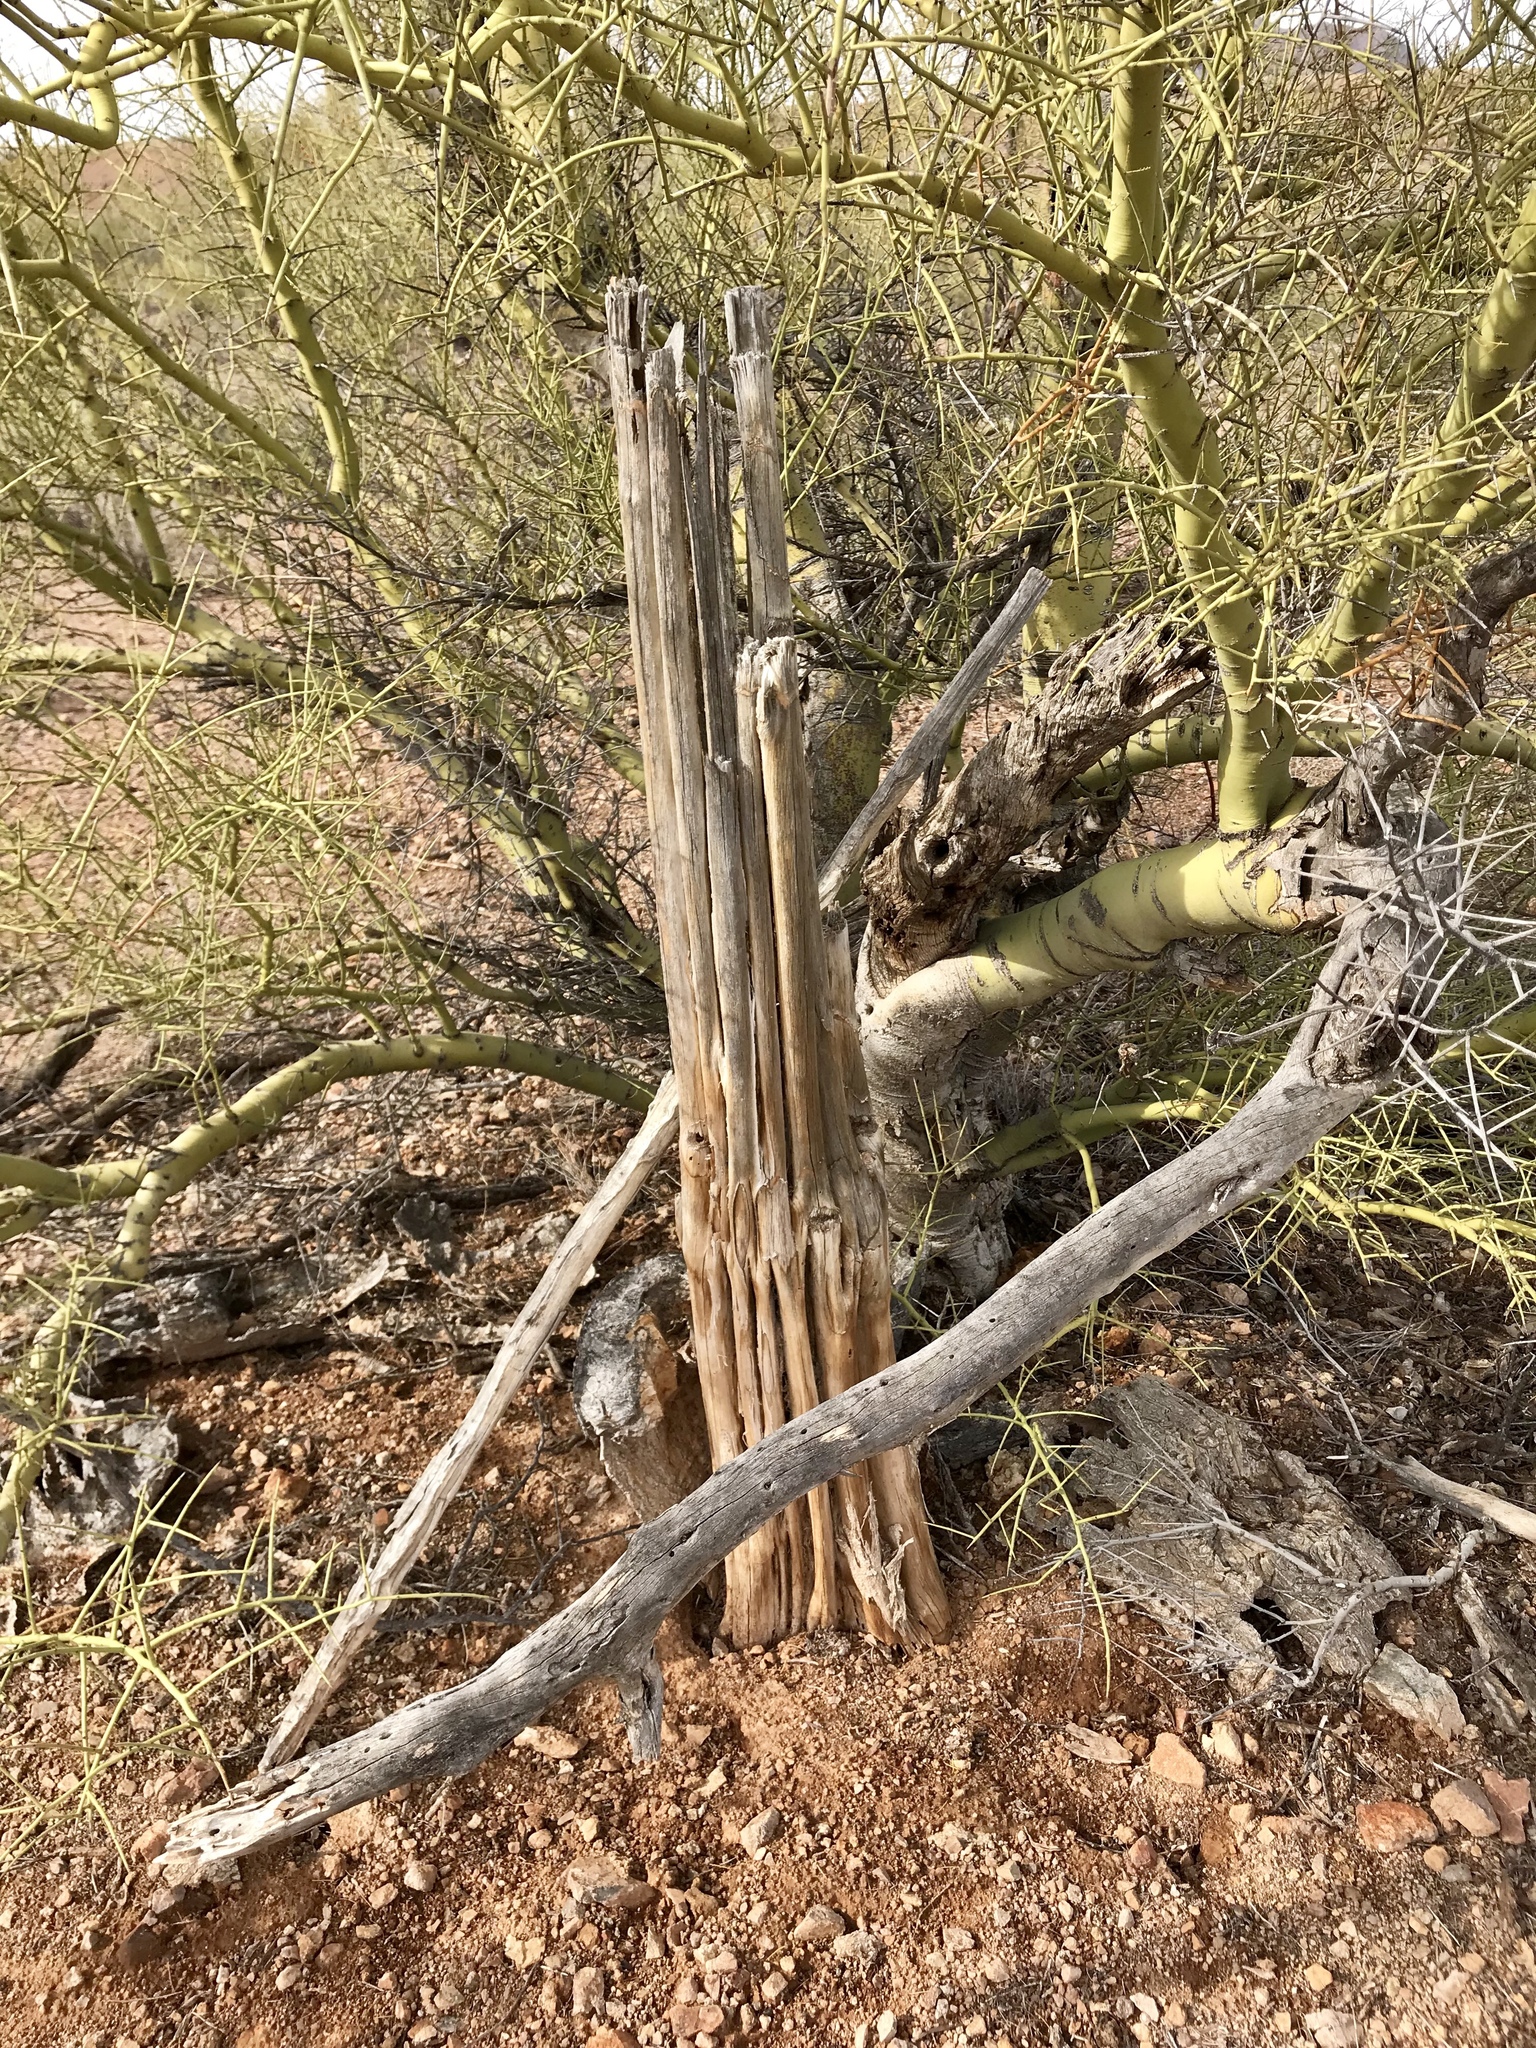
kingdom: Plantae
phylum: Tracheophyta
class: Magnoliopsida
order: Caryophyllales
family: Cactaceae
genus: Carnegiea
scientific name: Carnegiea gigantea
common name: Saguaro
